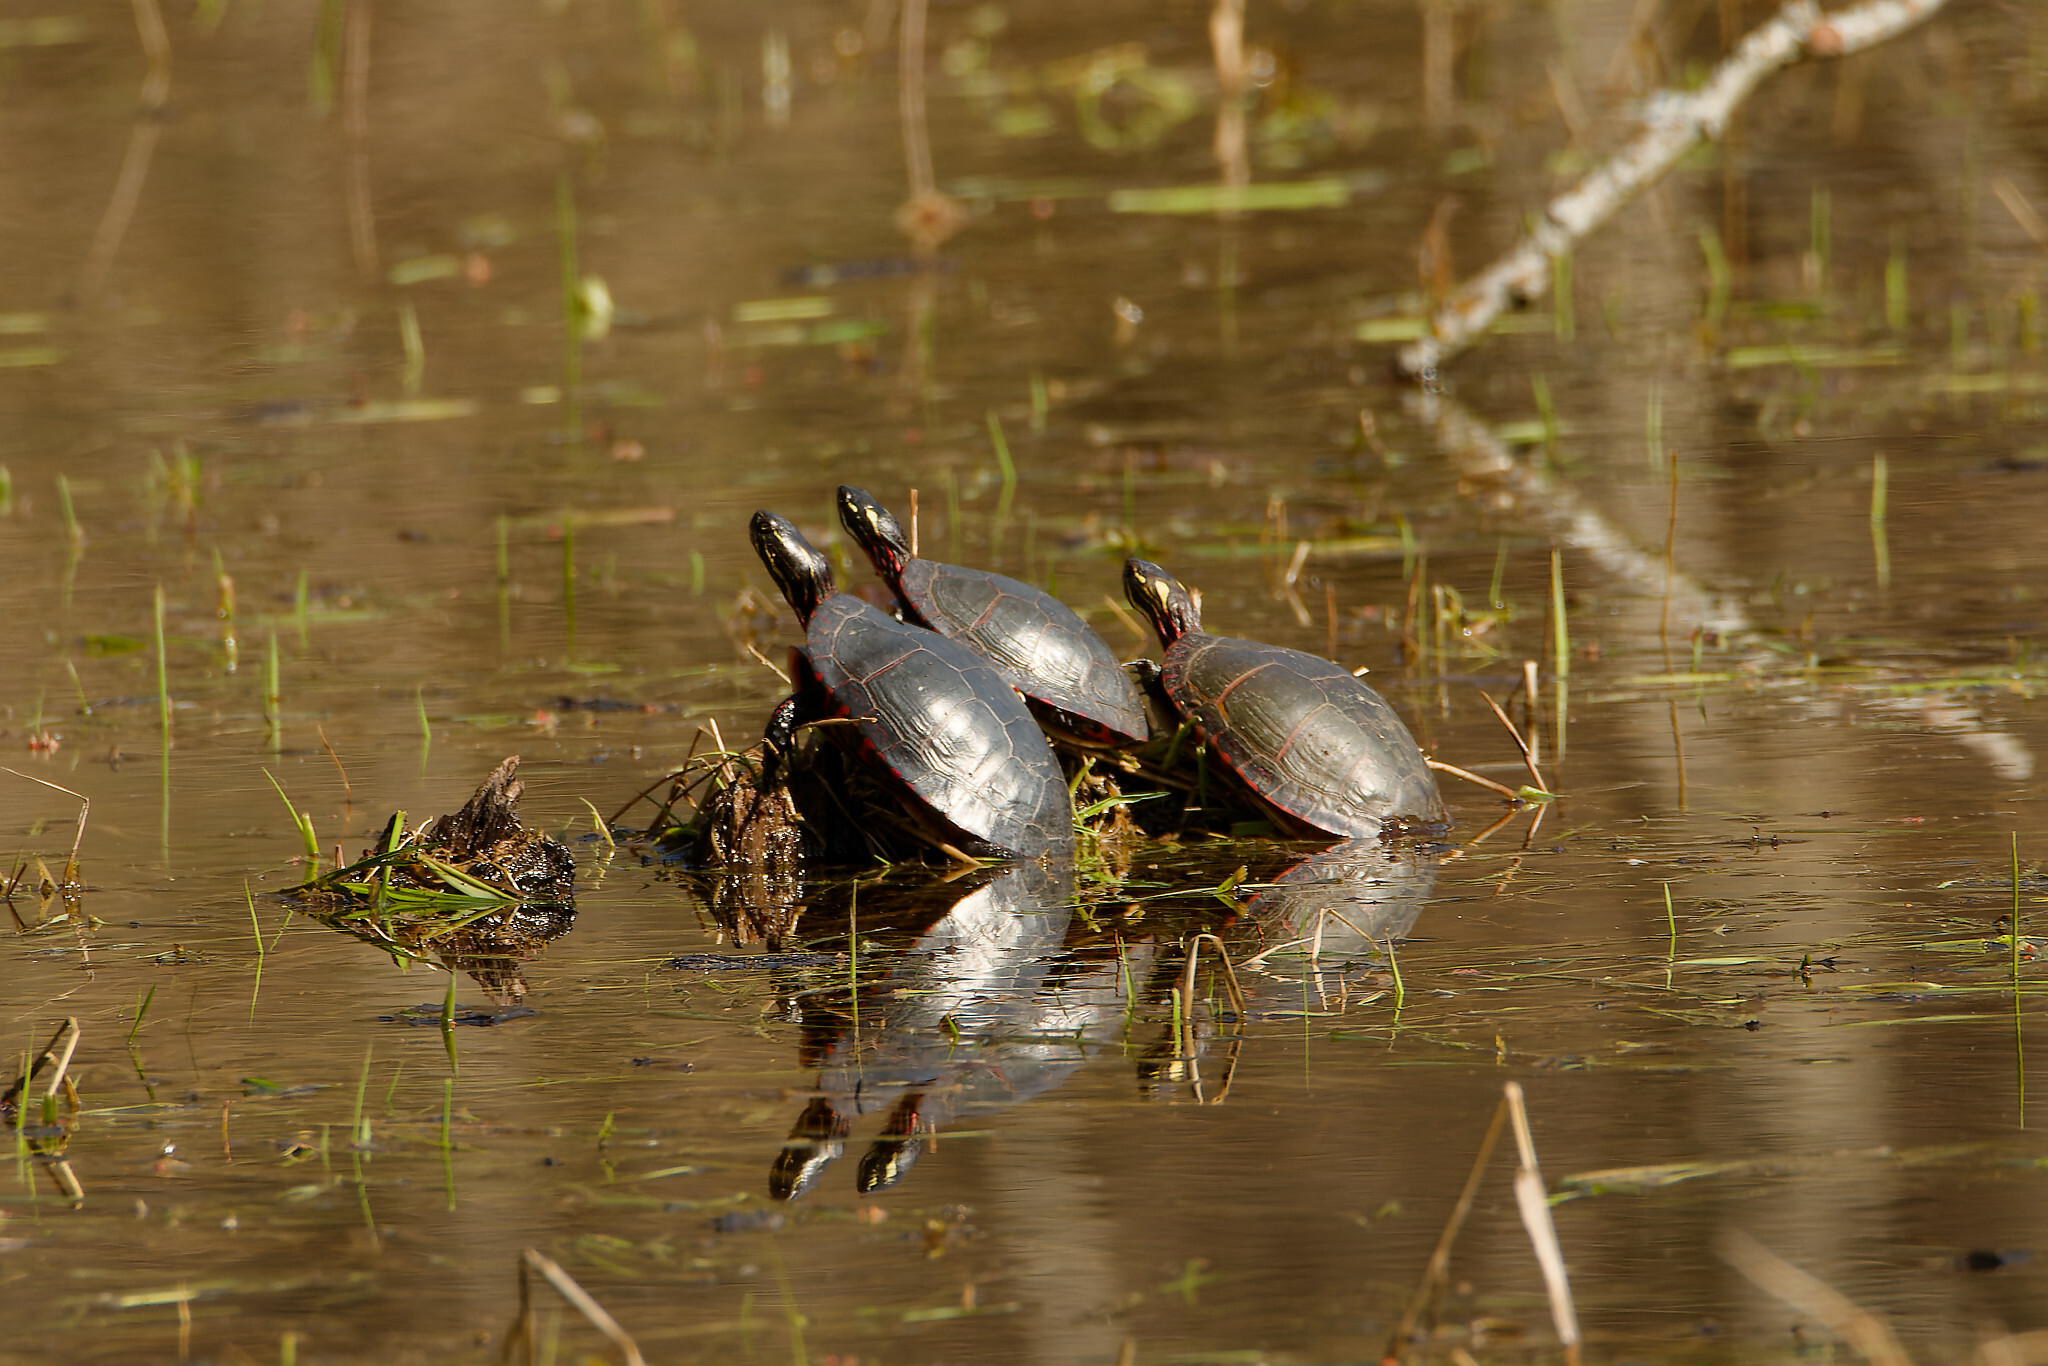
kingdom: Animalia
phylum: Chordata
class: Testudines
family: Emydidae
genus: Chrysemys
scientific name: Chrysemys picta
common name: Painted turtle
